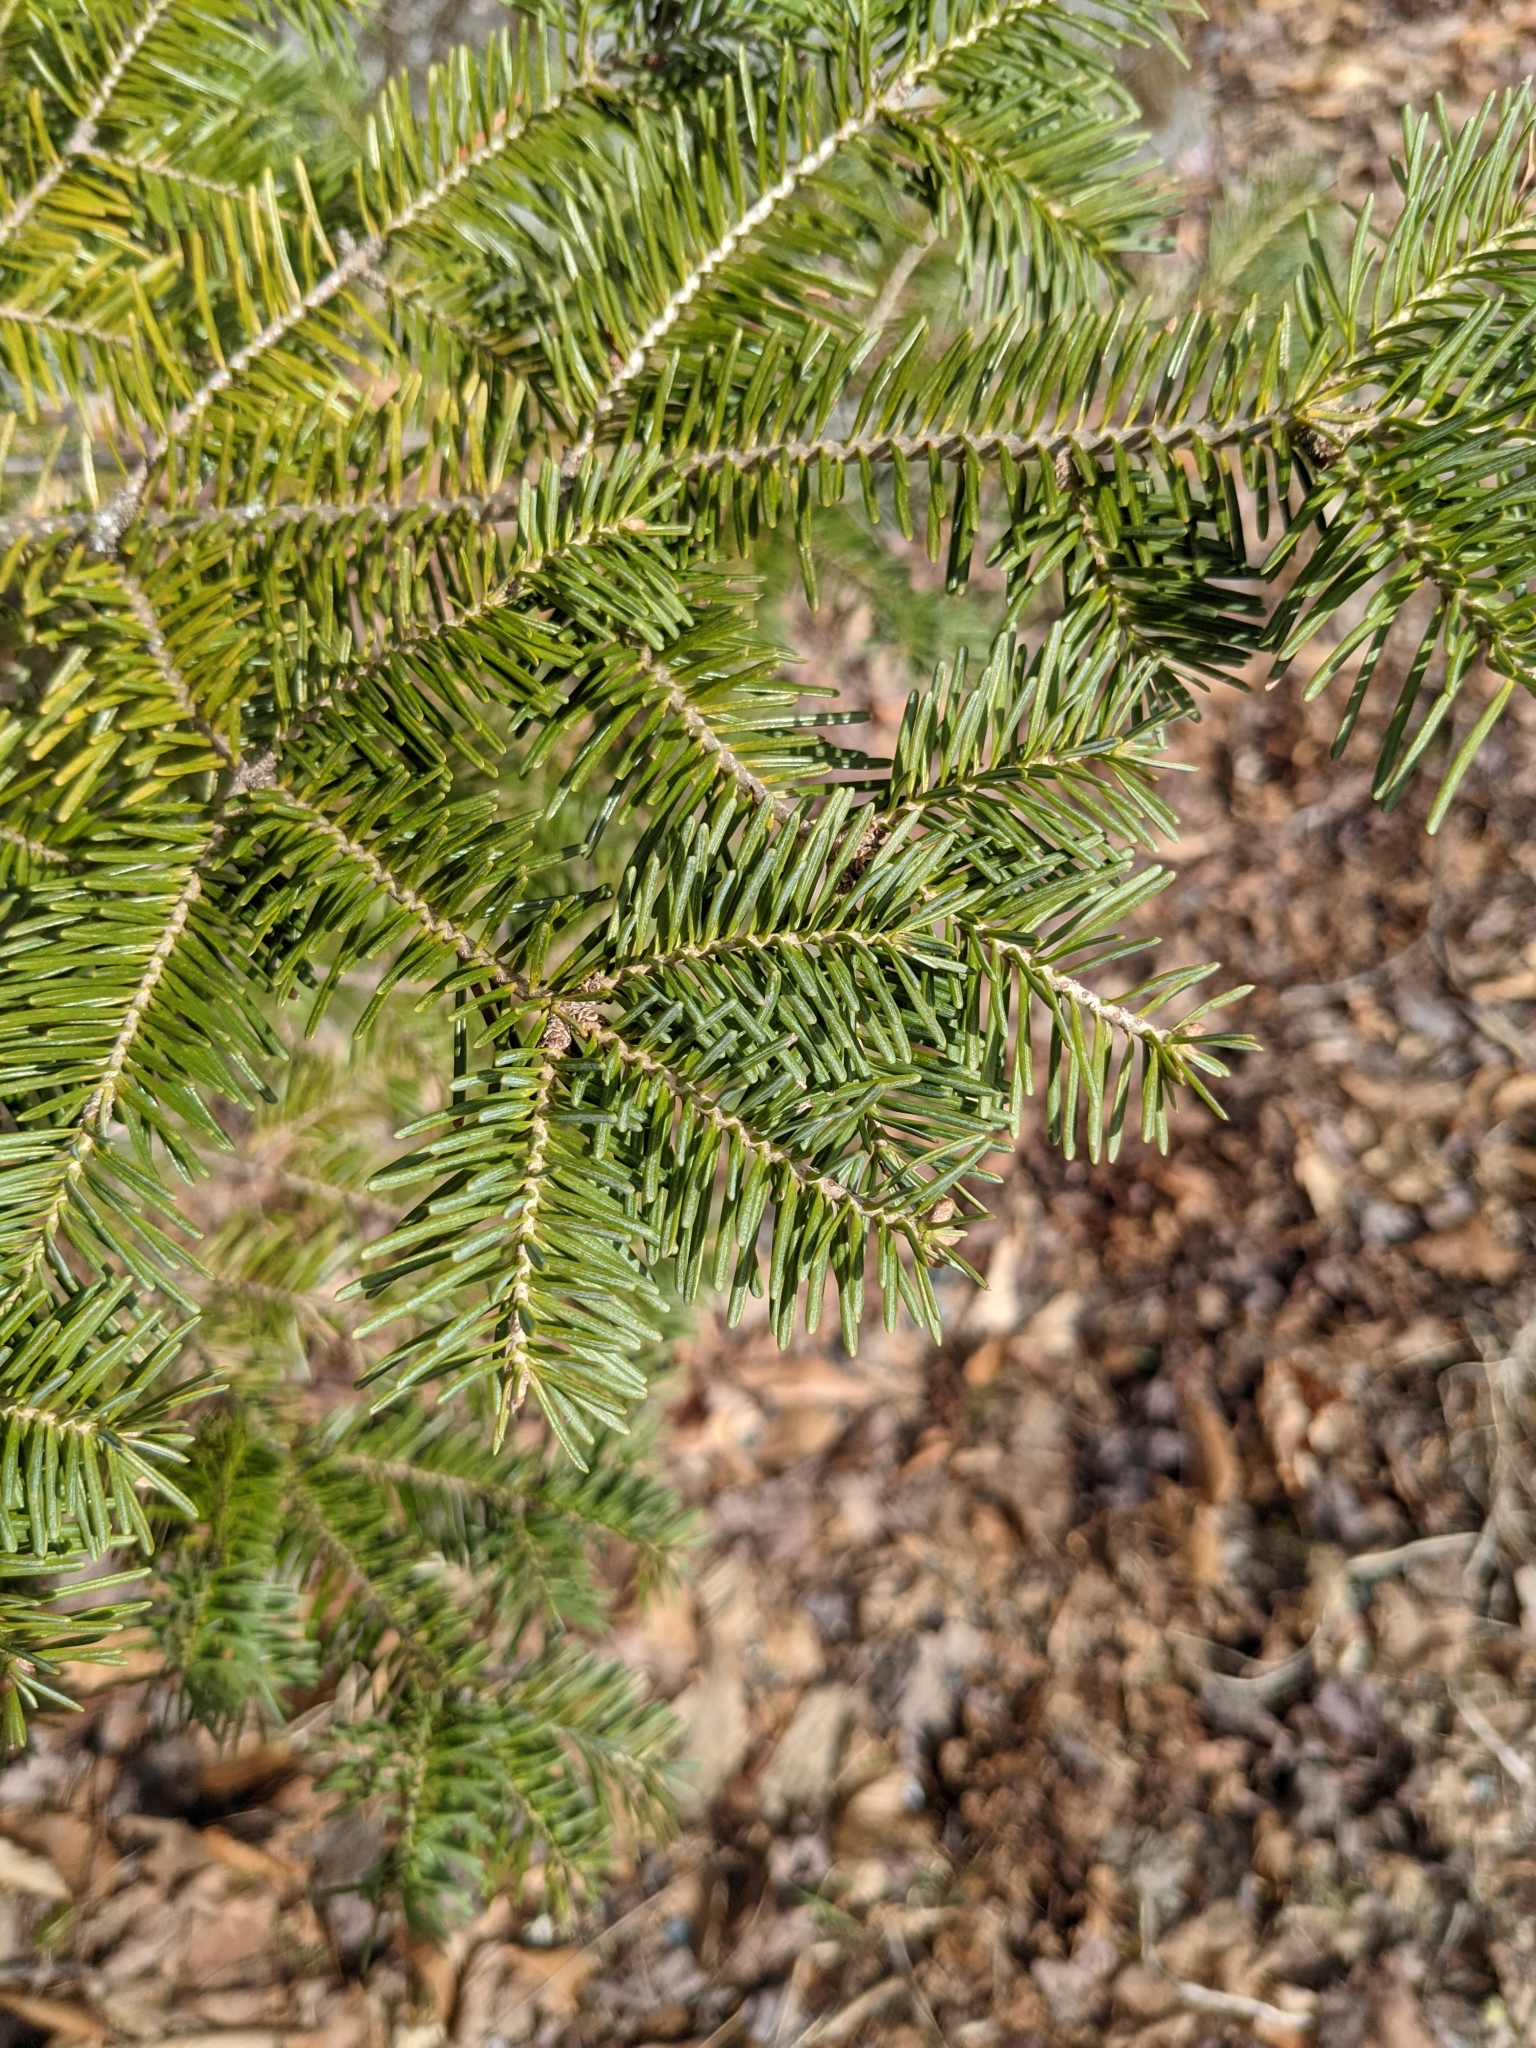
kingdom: Plantae
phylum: Tracheophyta
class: Pinopsida
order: Pinales
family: Pinaceae
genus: Abies
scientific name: Abies balsamea
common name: Balsam fir
